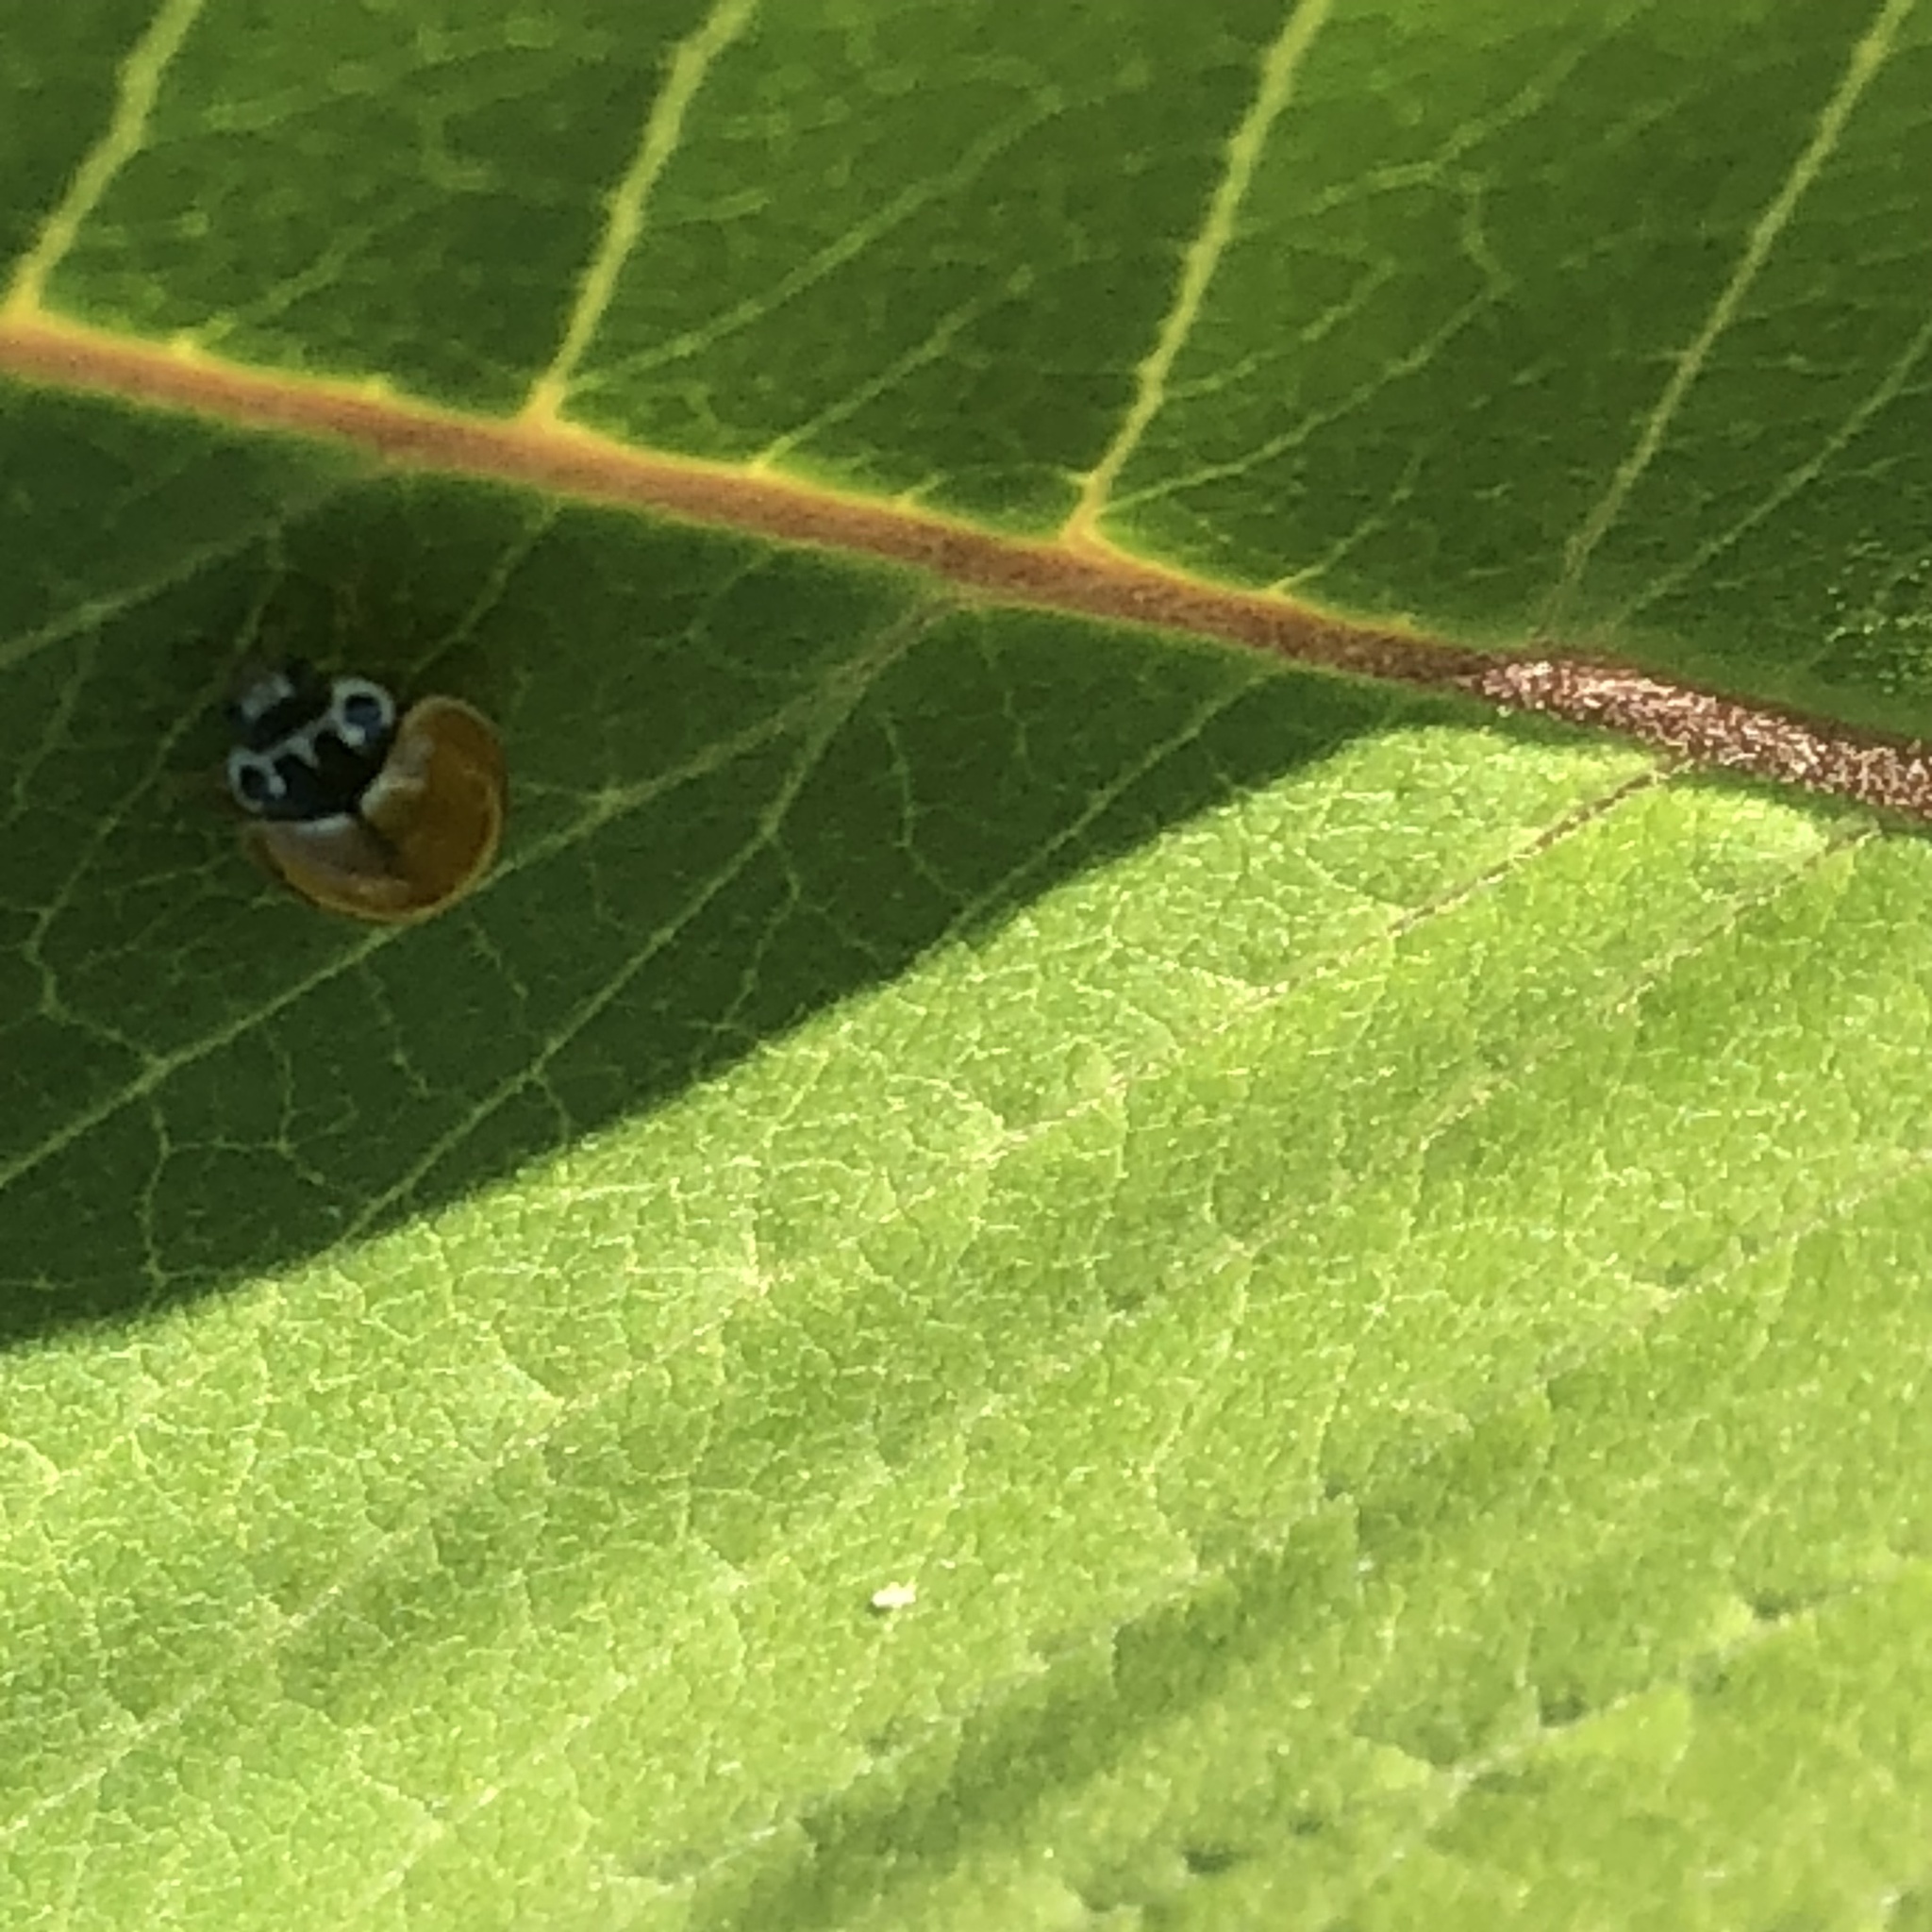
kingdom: Animalia
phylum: Arthropoda
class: Insecta
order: Coleoptera
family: Coccinellidae
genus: Cycloneda
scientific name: Cycloneda munda
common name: Polished lady beetle
